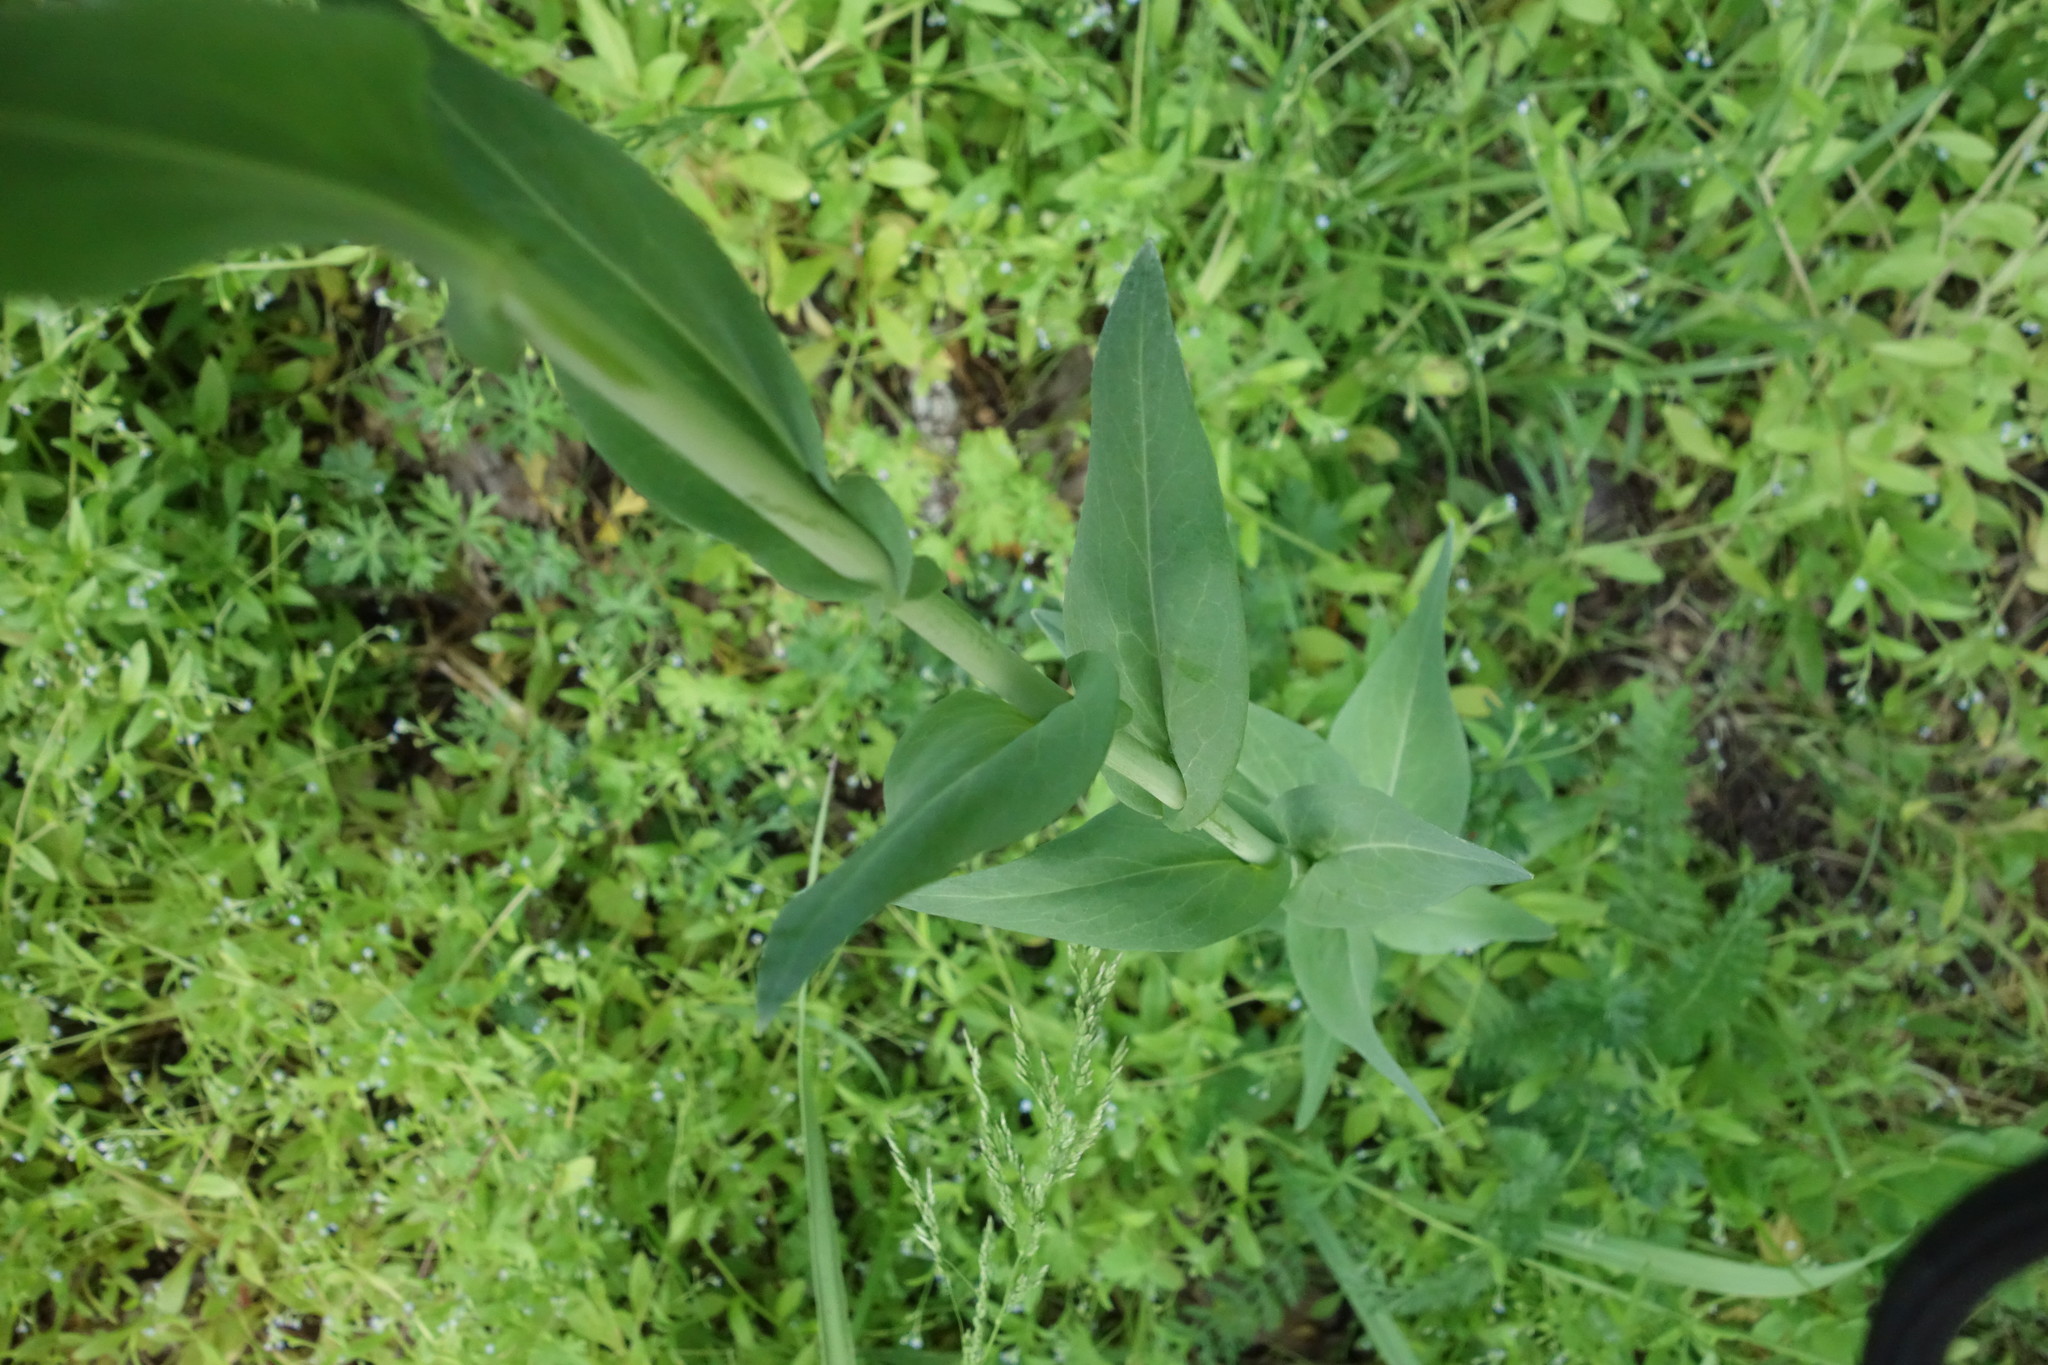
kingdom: Plantae
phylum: Tracheophyta
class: Magnoliopsida
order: Brassicales
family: Brassicaceae
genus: Turritis
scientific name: Turritis glabra
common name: Tower rockcress
